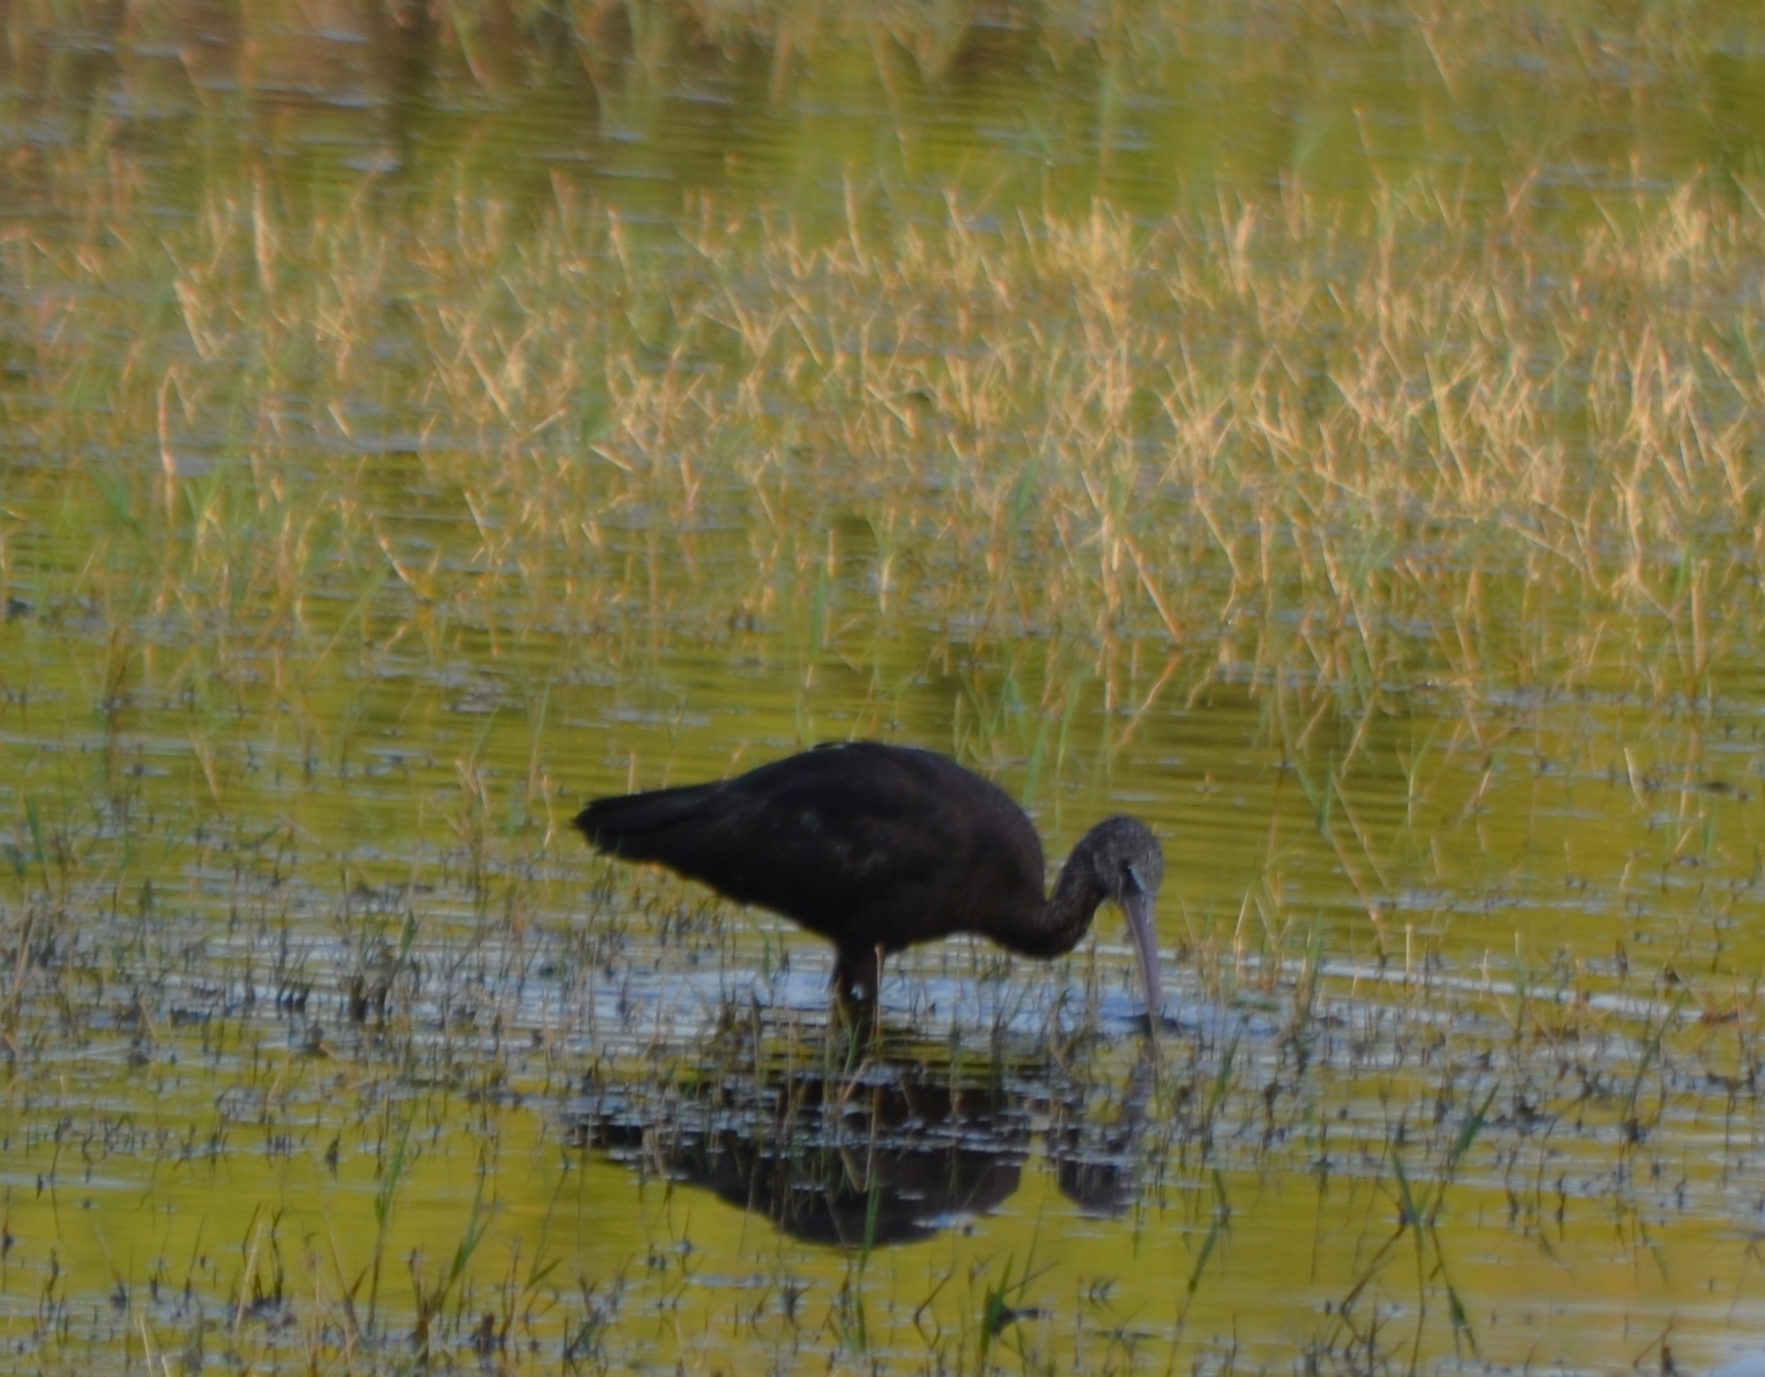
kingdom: Animalia
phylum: Chordata
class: Aves
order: Pelecaniformes
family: Threskiornithidae
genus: Plegadis
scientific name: Plegadis falcinellus
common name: Glossy ibis
